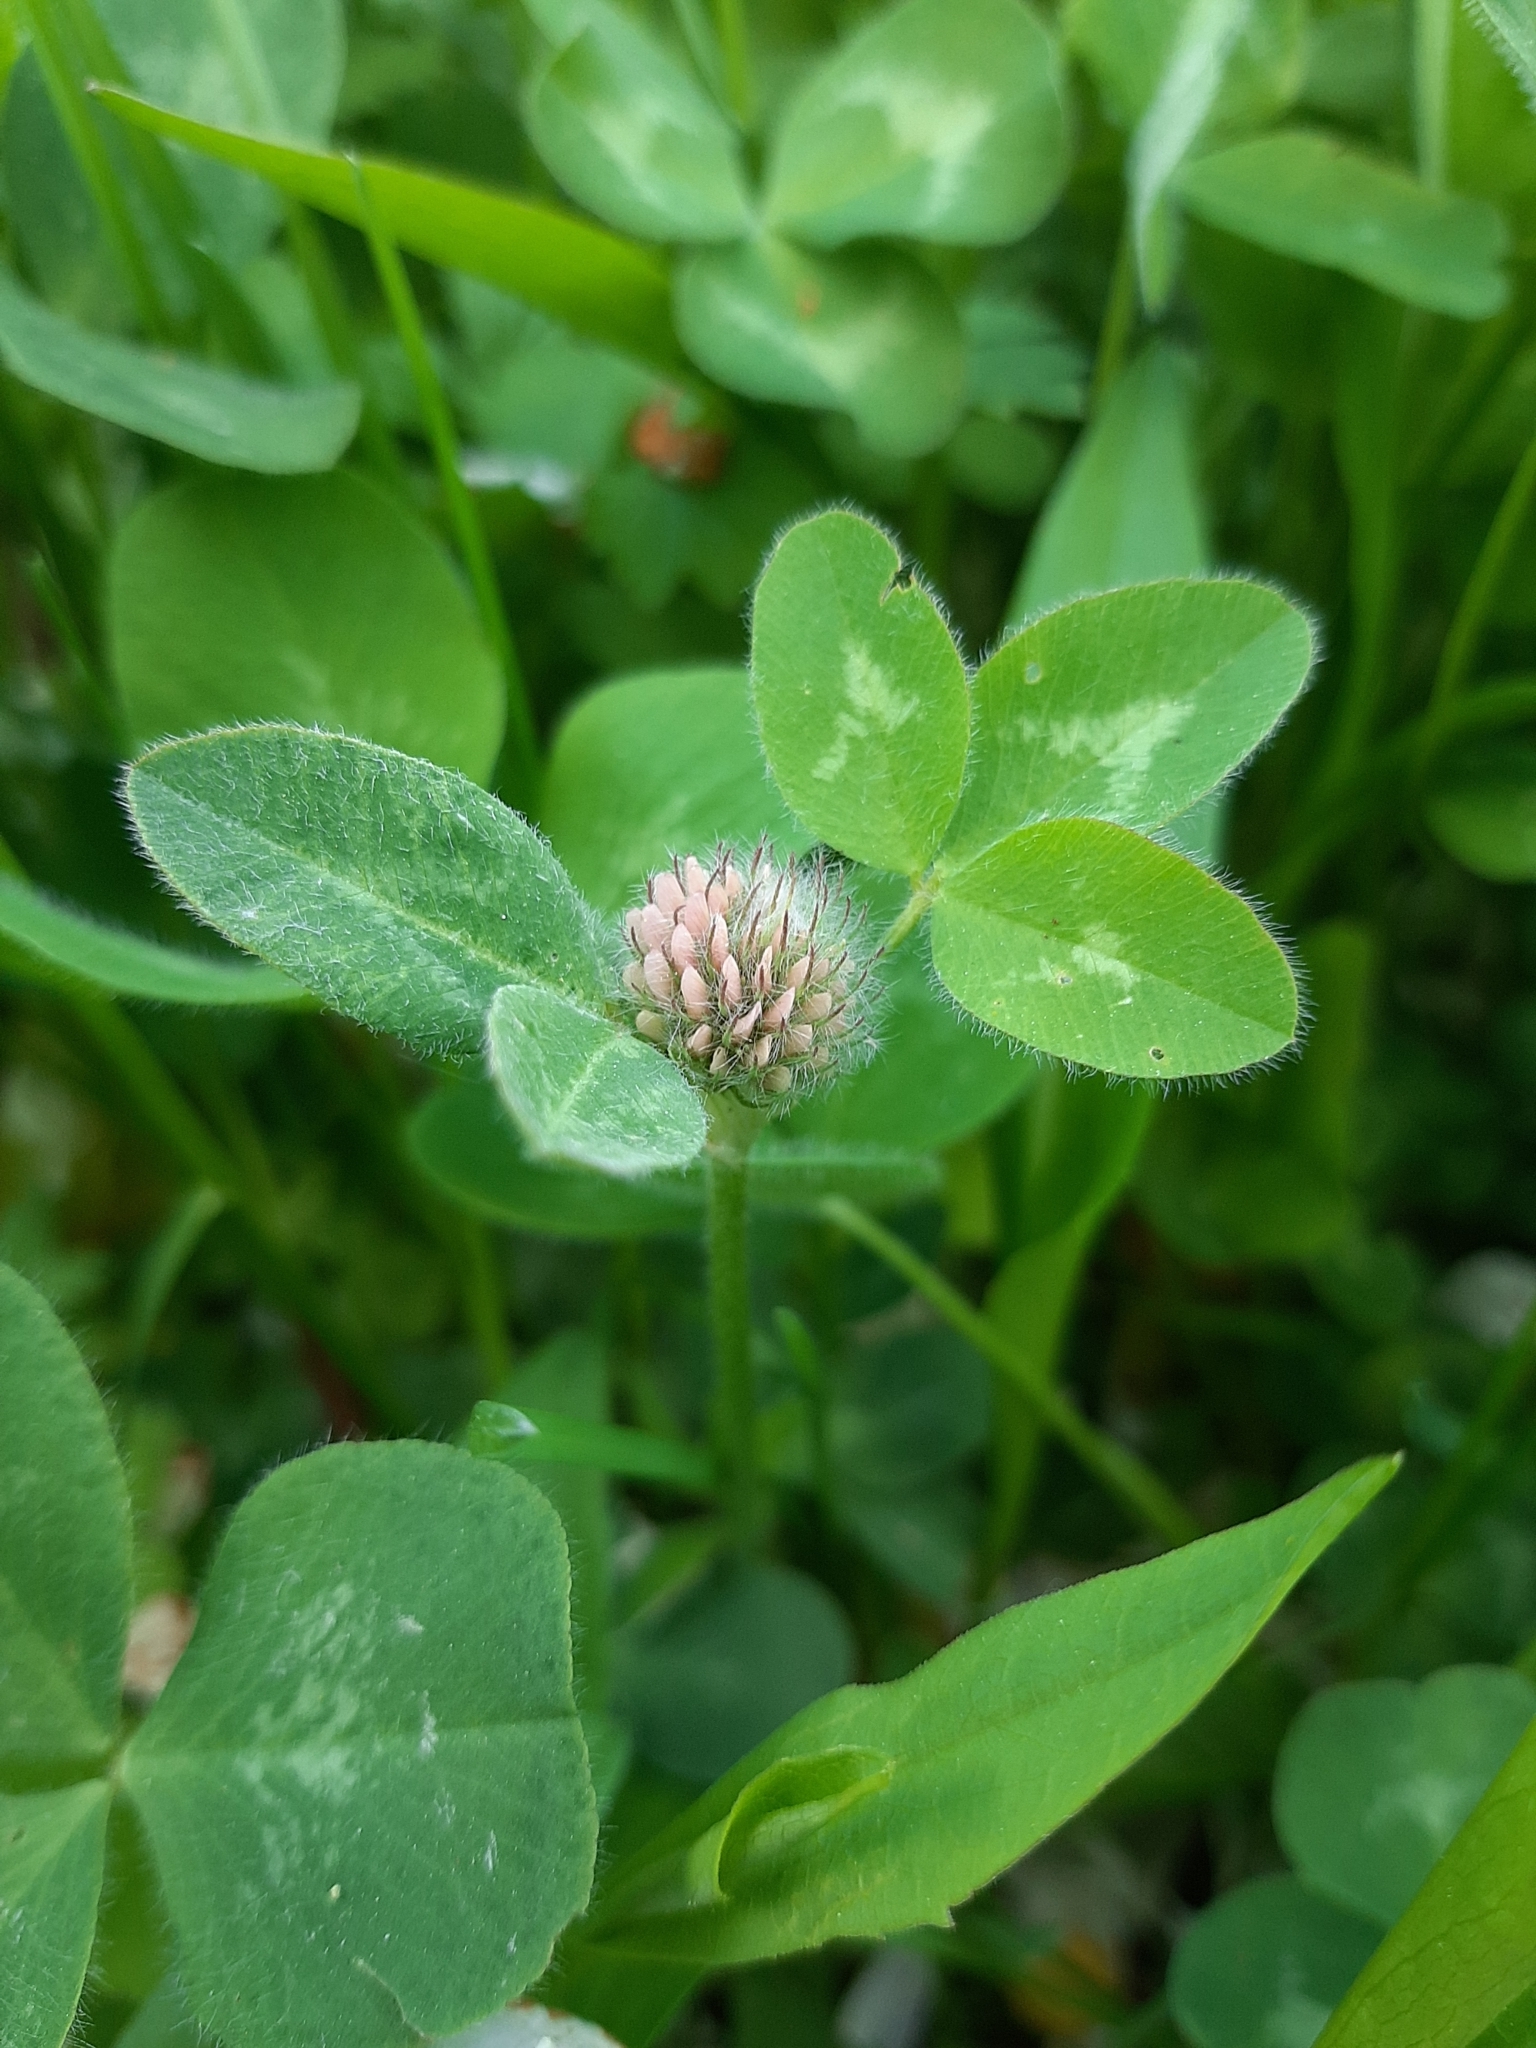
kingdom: Plantae
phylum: Tracheophyta
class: Magnoliopsida
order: Fabales
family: Fabaceae
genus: Trifolium
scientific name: Trifolium pratense
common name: Red clover
